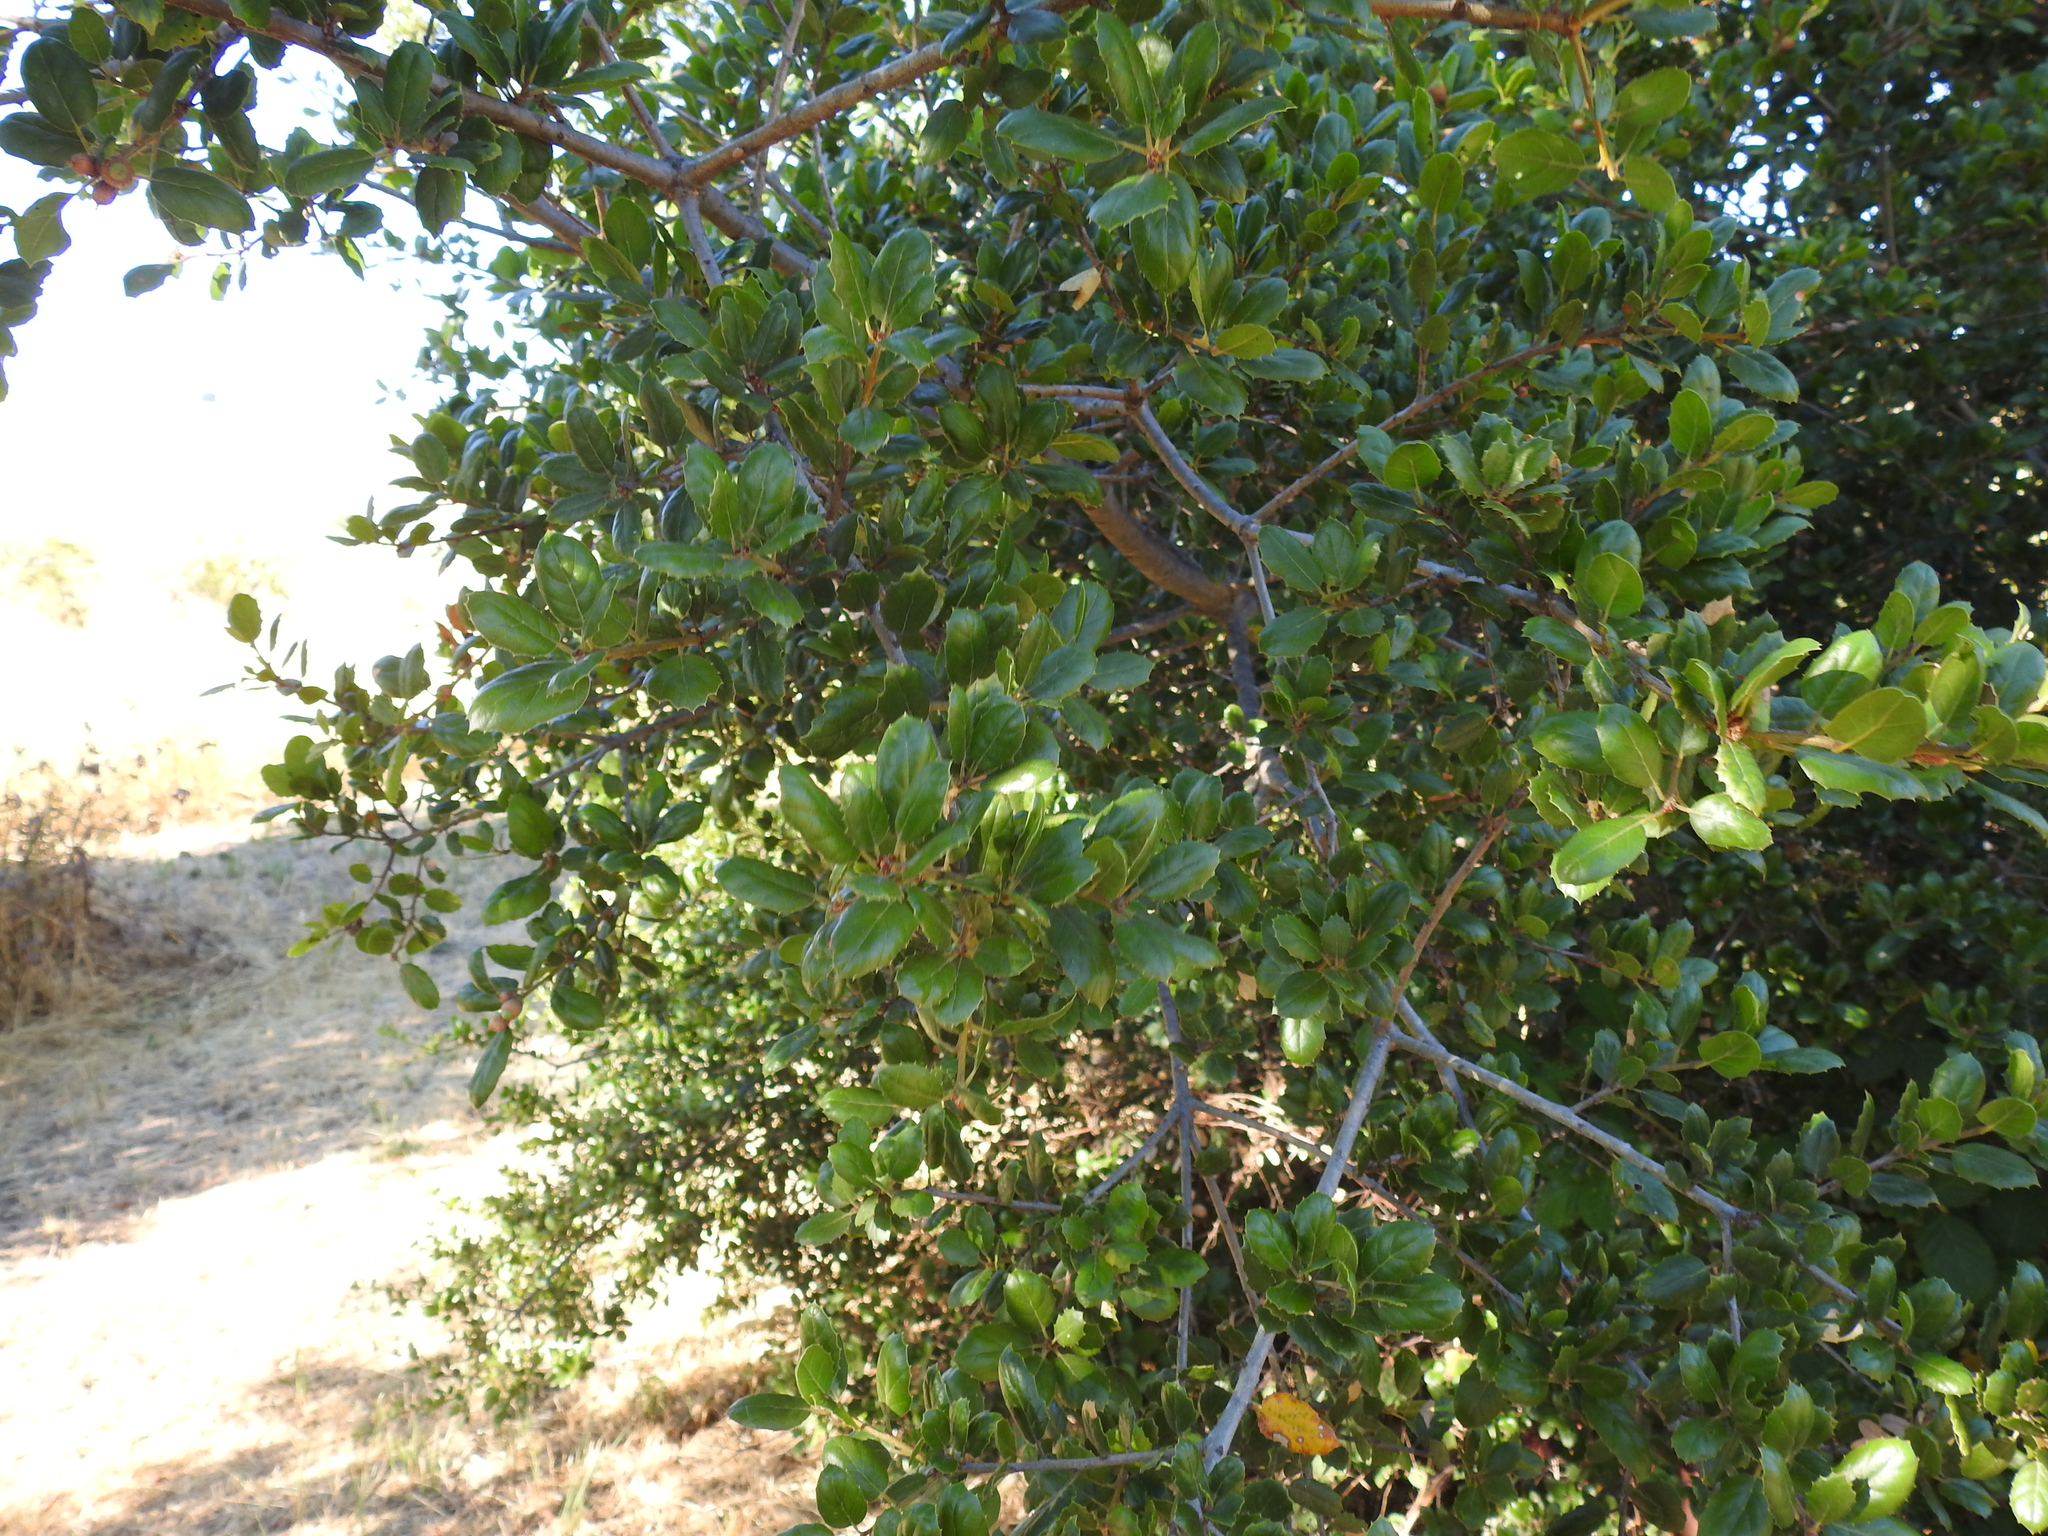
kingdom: Plantae
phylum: Tracheophyta
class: Magnoliopsida
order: Fagales
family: Fagaceae
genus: Quercus
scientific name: Quercus agrifolia
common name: California live oak
